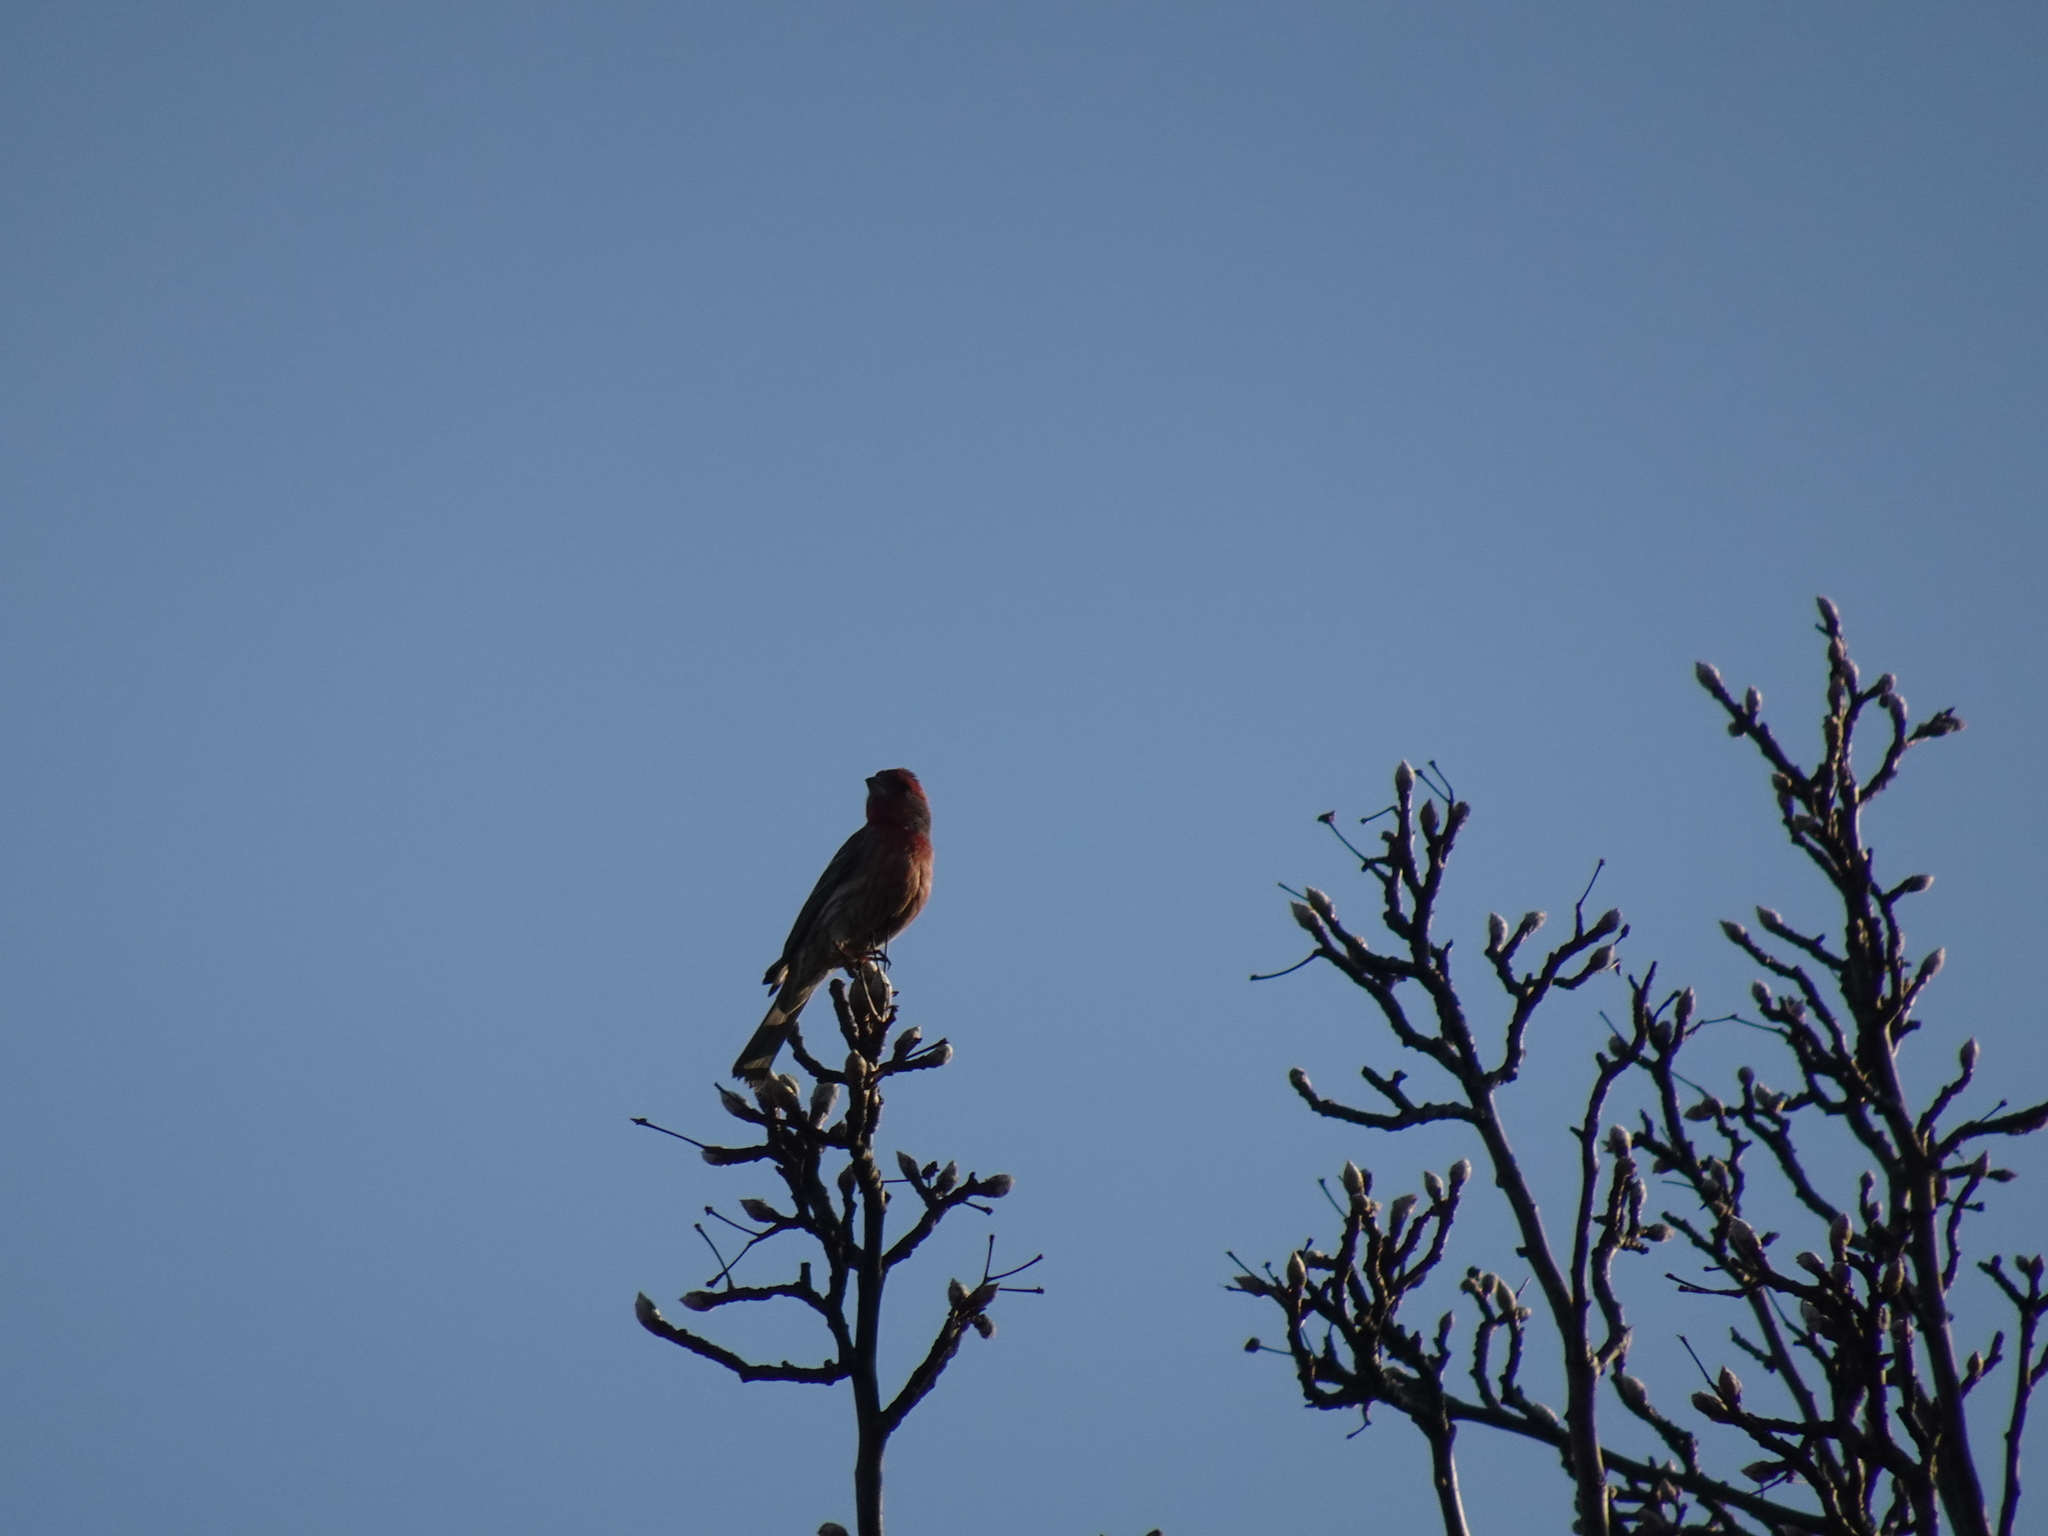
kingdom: Animalia
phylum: Chordata
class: Aves
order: Passeriformes
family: Fringillidae
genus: Haemorhous
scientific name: Haemorhous mexicanus
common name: House finch
